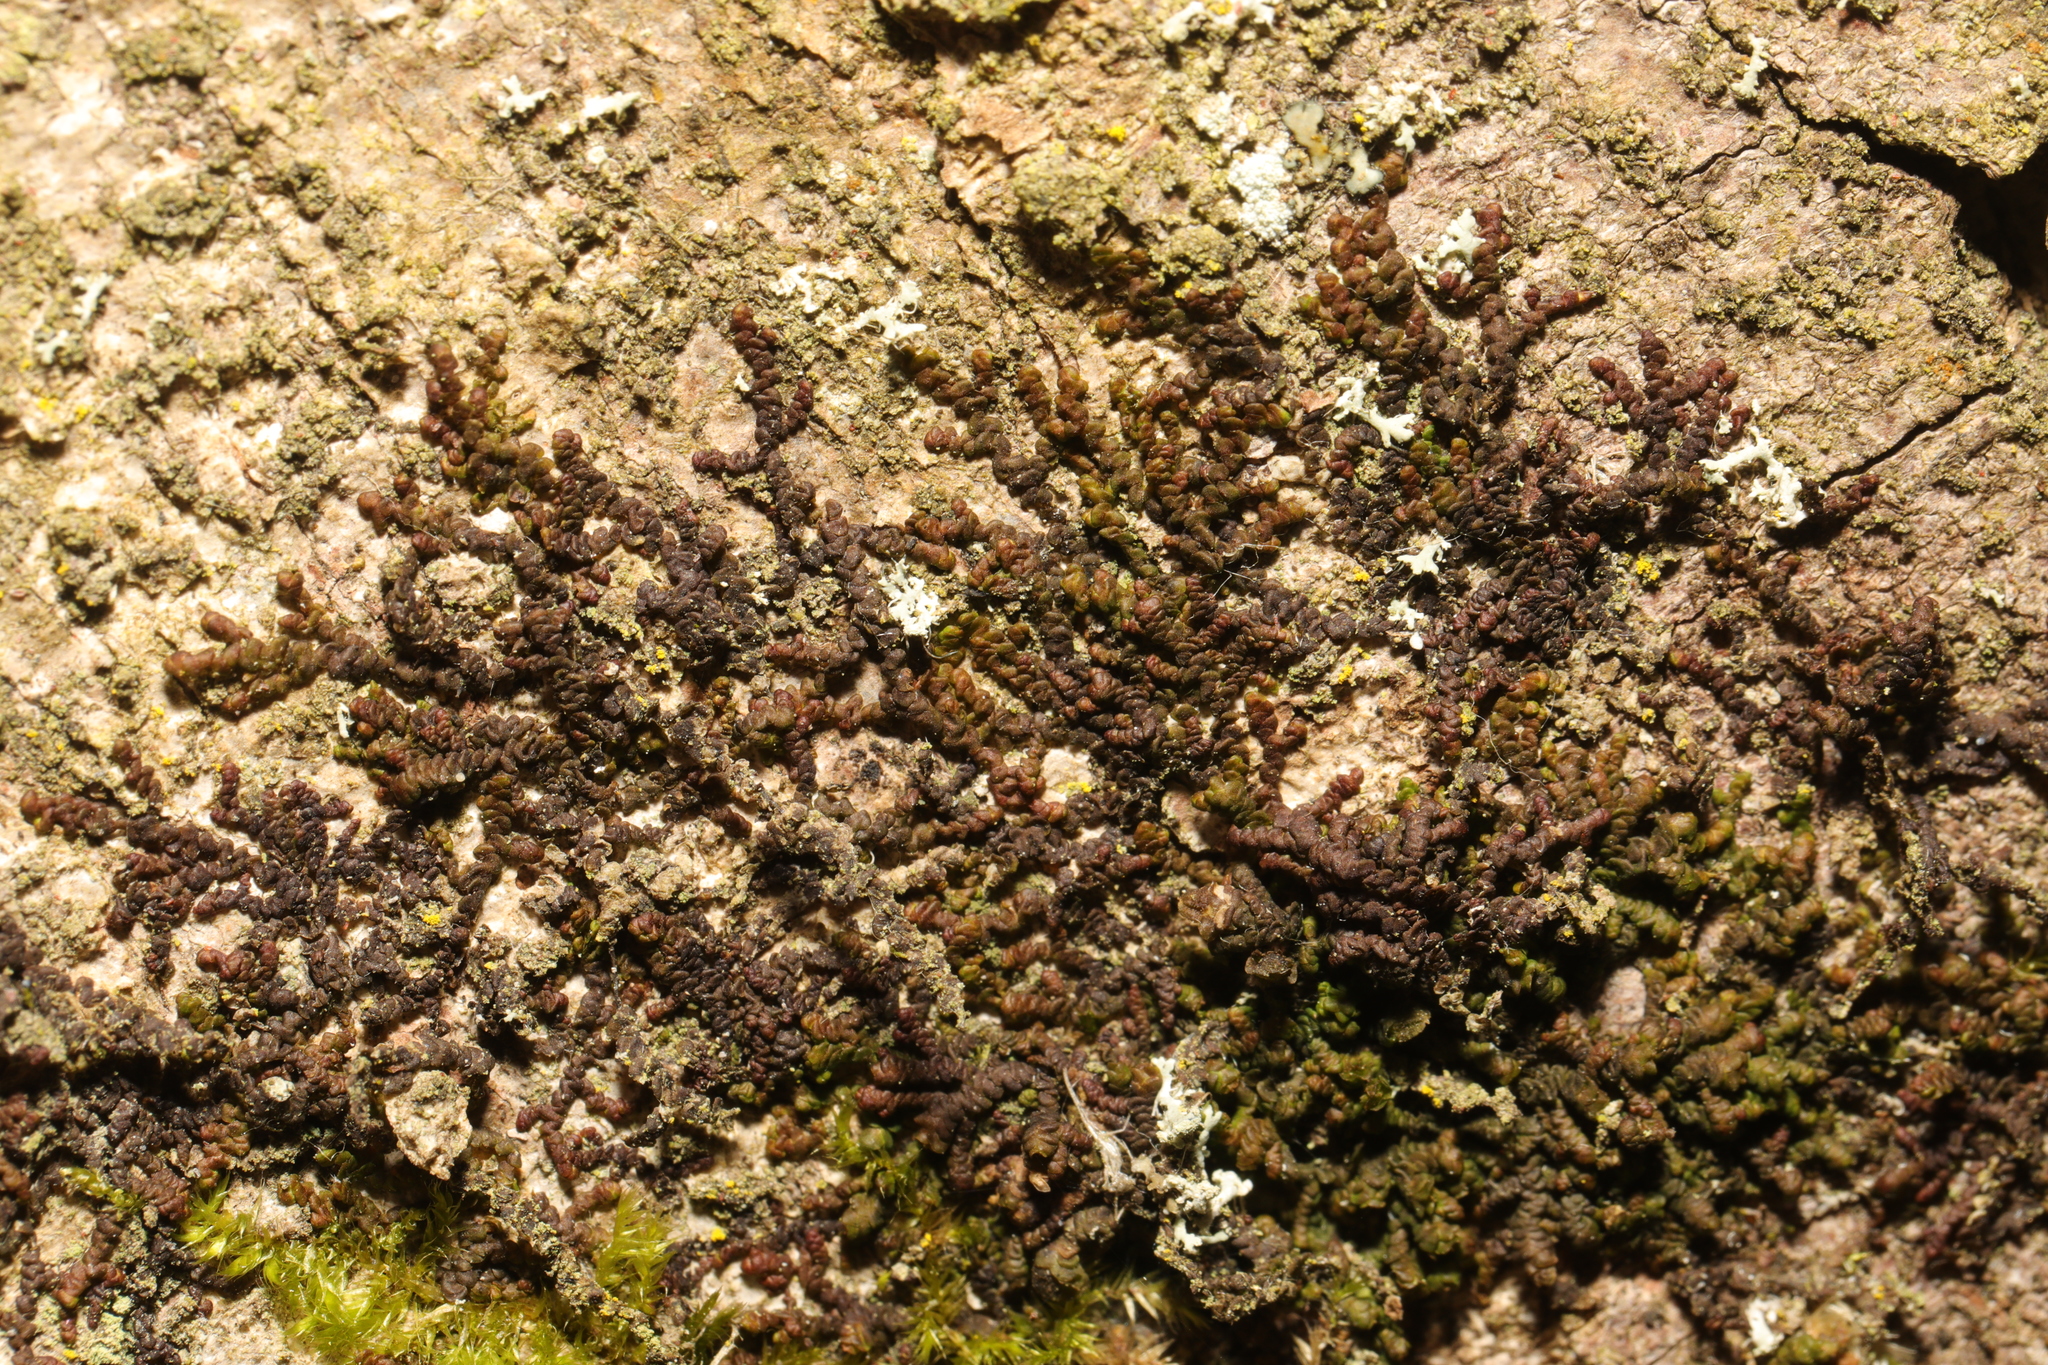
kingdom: Plantae
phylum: Marchantiophyta
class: Jungermanniopsida
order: Porellales
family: Frullaniaceae
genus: Frullania
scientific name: Frullania dilatata
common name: Dilated scalewort
